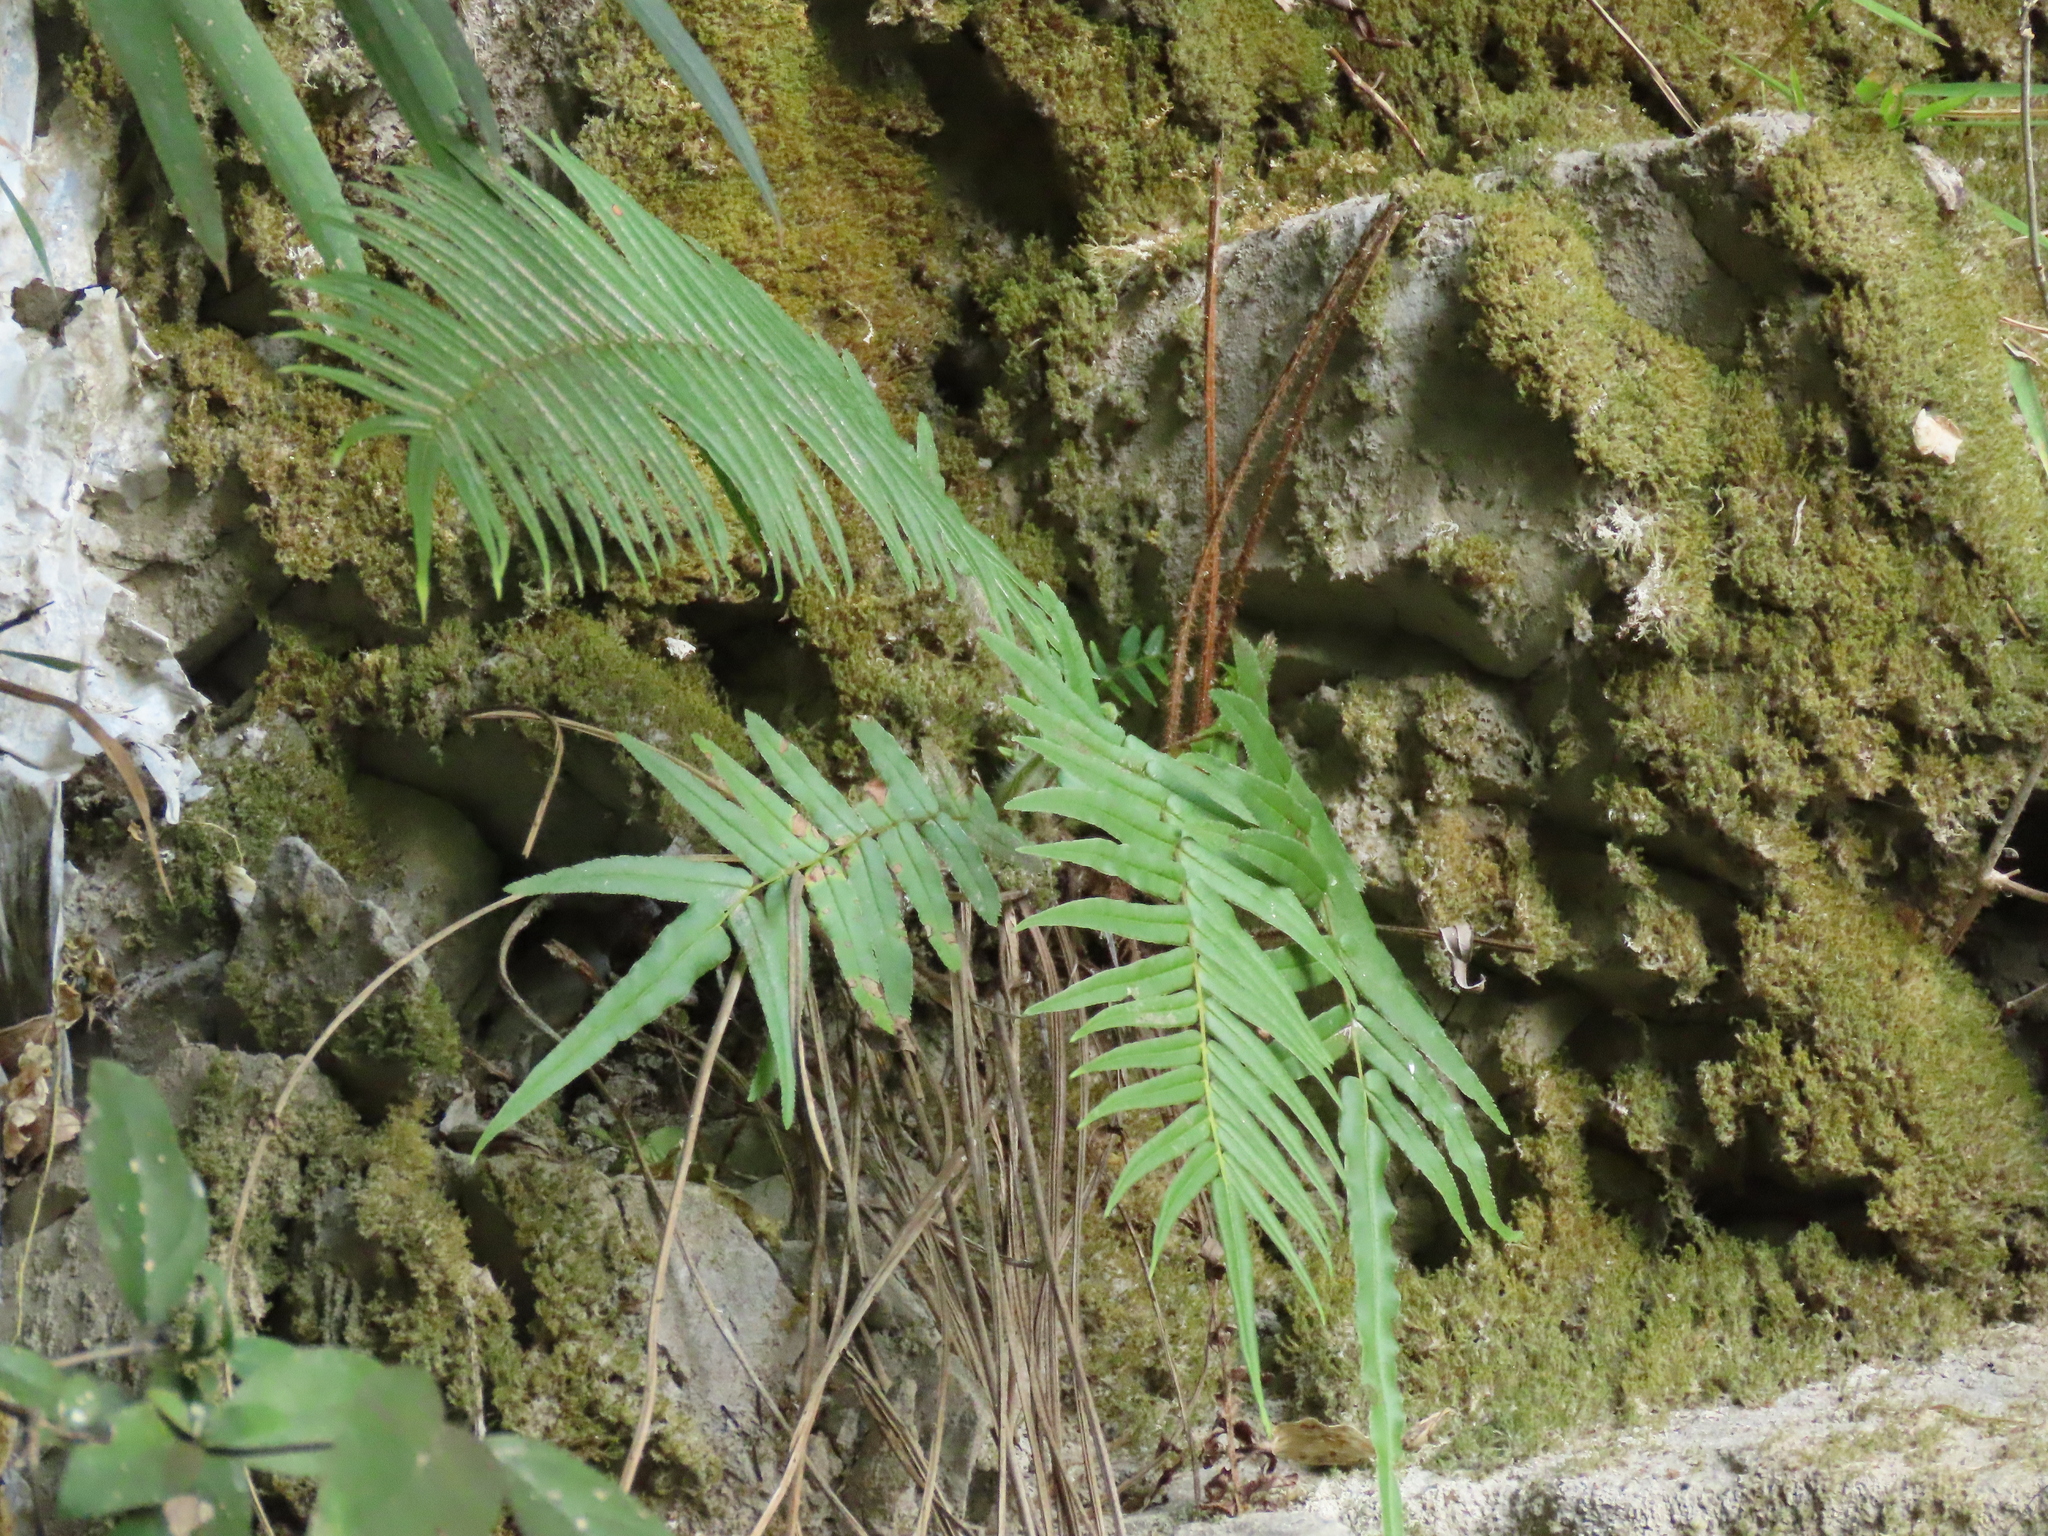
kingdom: Plantae
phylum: Tracheophyta
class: Polypodiopsida
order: Polypodiales
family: Pteridaceae
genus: Pteris
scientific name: Pteris vittata
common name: Ladder brake
